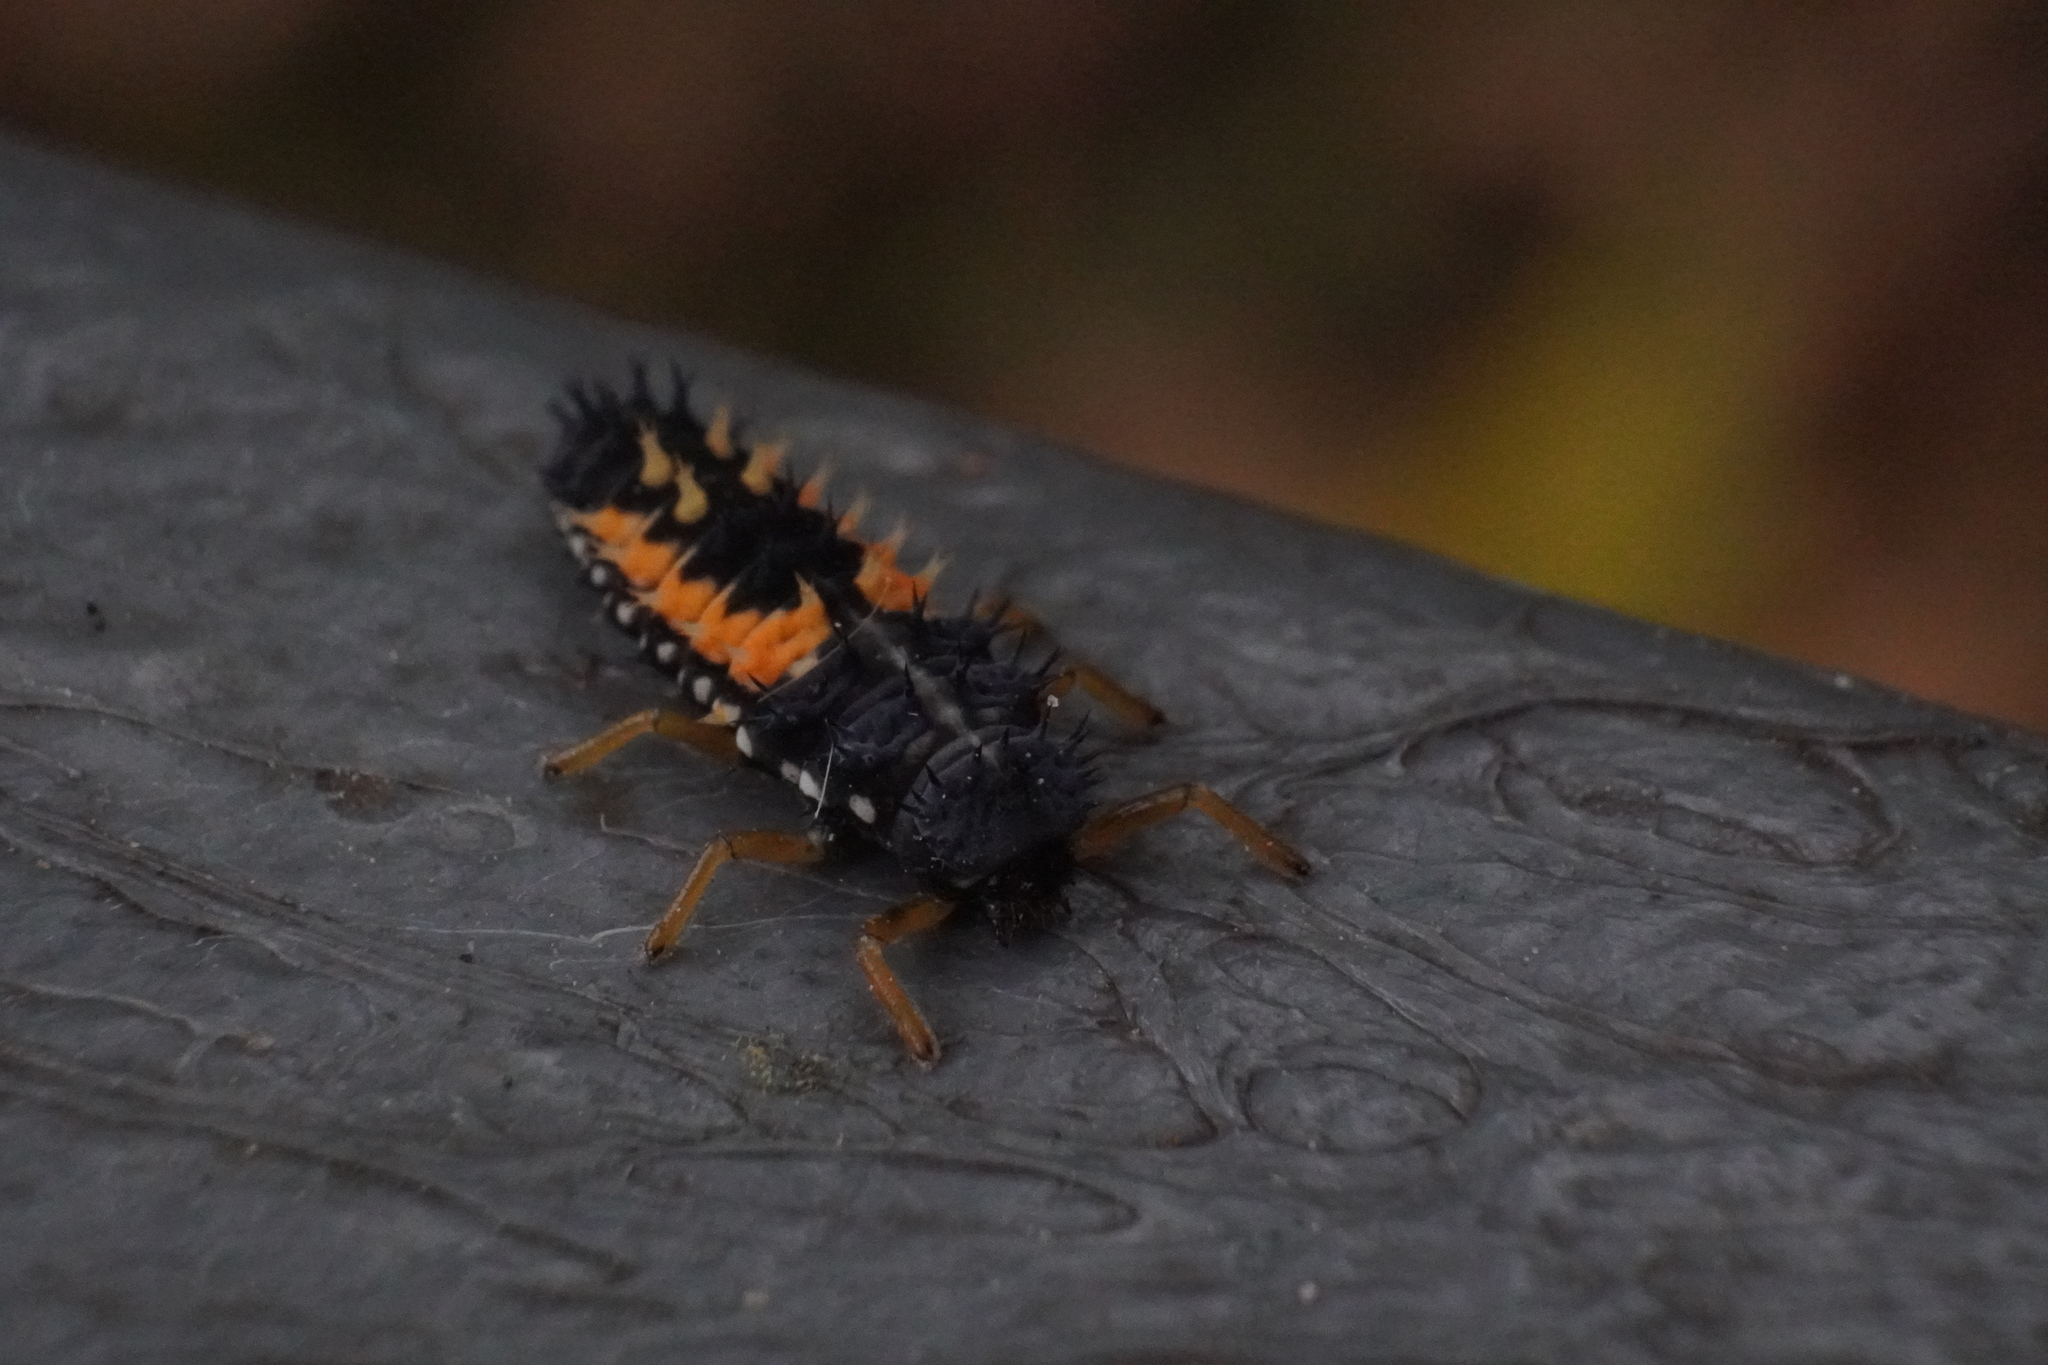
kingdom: Animalia
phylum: Arthropoda
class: Insecta
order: Coleoptera
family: Coccinellidae
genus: Harmonia
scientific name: Harmonia axyridis
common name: Harlequin ladybird
